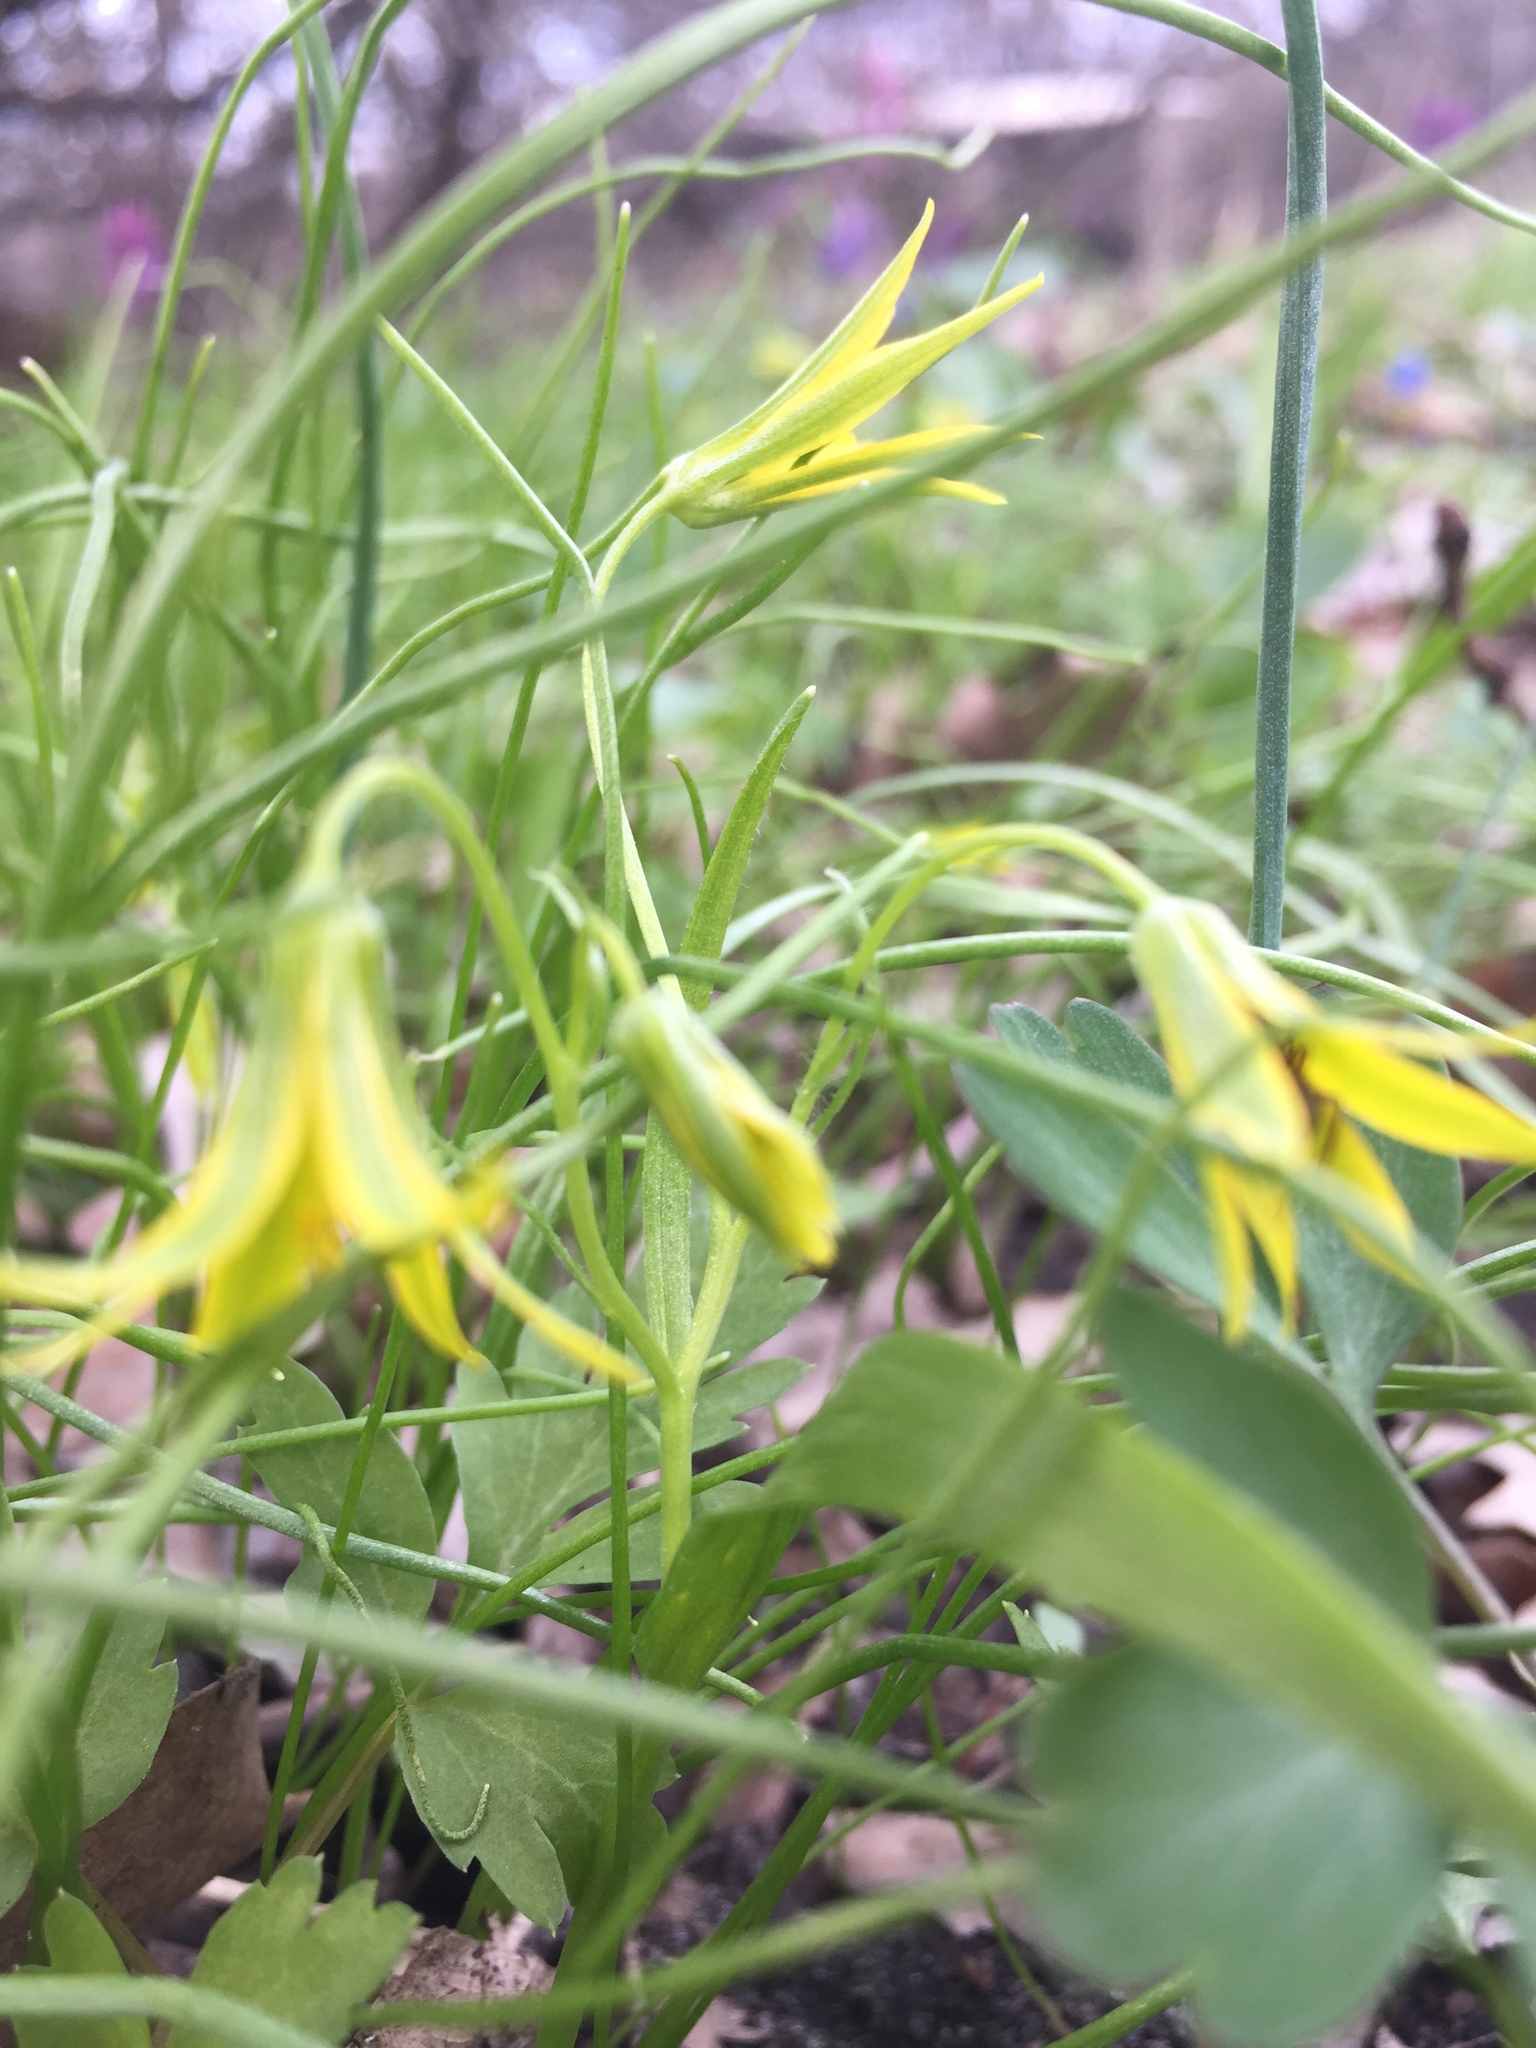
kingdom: Plantae
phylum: Tracheophyta
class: Liliopsida
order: Liliales
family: Liliaceae
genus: Gagea
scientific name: Gagea minima
